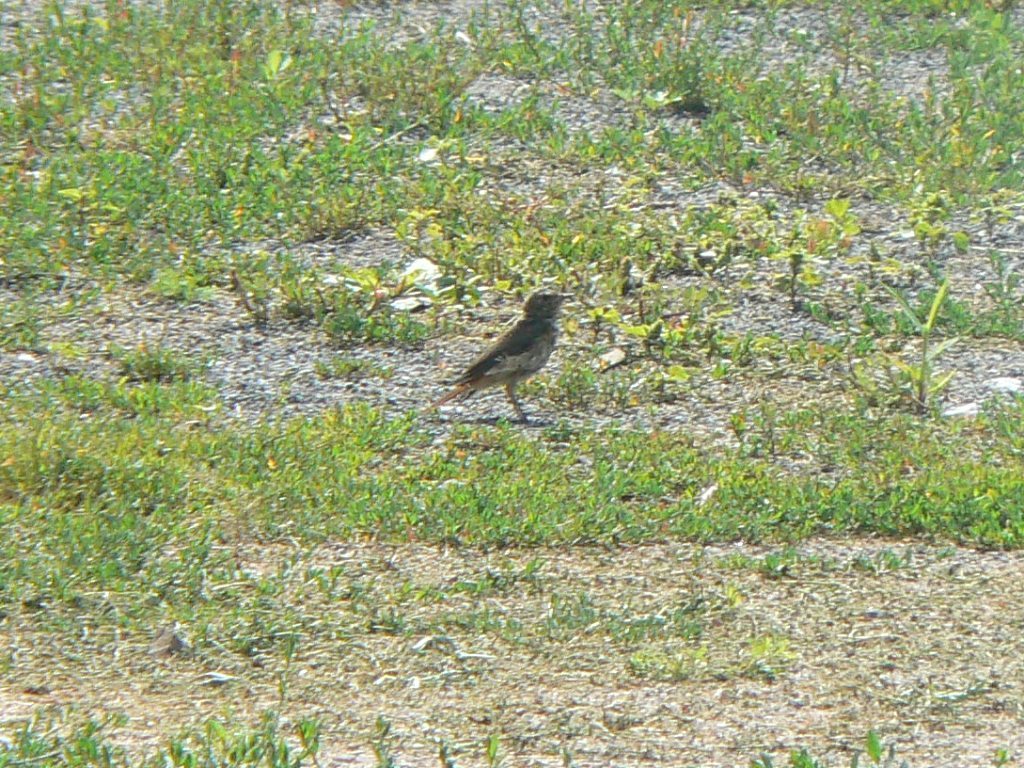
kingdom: Animalia
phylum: Chordata
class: Aves
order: Passeriformes
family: Muscicapidae
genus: Phoenicurus
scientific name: Phoenicurus phoenicurus
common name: Common redstart
